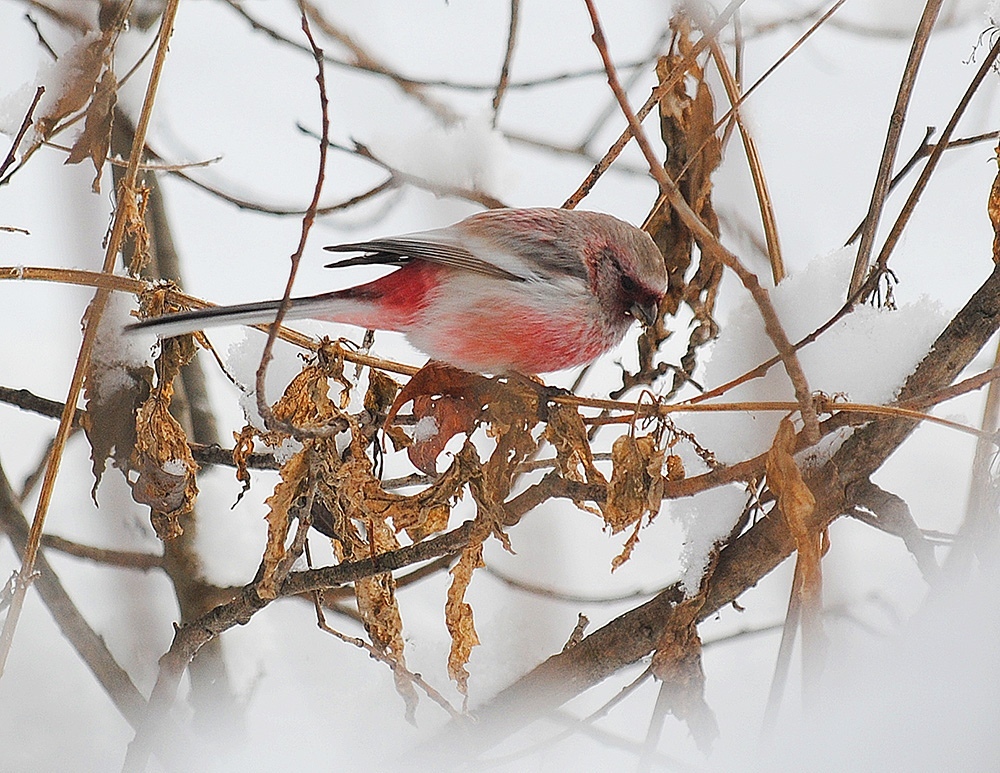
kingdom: Animalia
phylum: Chordata
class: Aves
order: Passeriformes
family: Fringillidae
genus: Carpodacus
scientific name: Carpodacus sibiricus
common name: Long-tailed rosefinch
